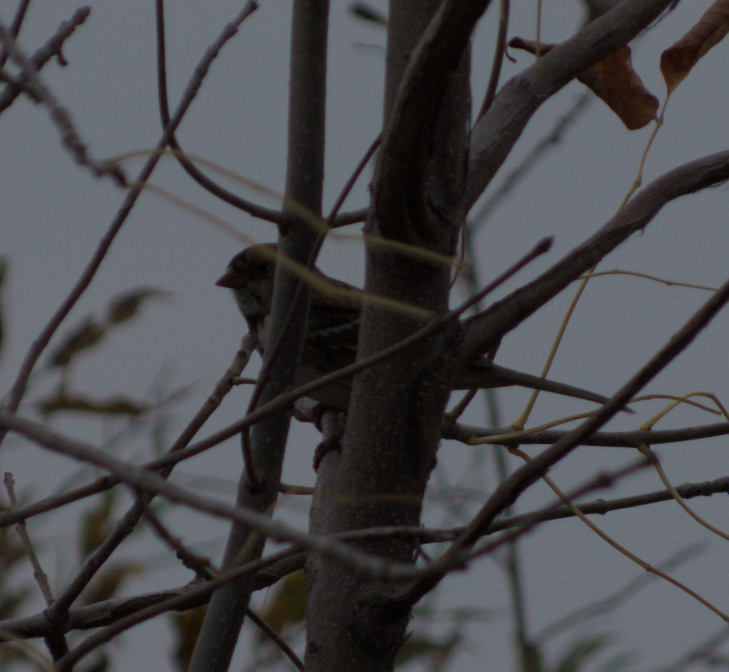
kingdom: Animalia
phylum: Chordata
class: Aves
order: Passeriformes
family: Passerellidae
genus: Zonotrichia
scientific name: Zonotrichia querula
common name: Harris's sparrow
